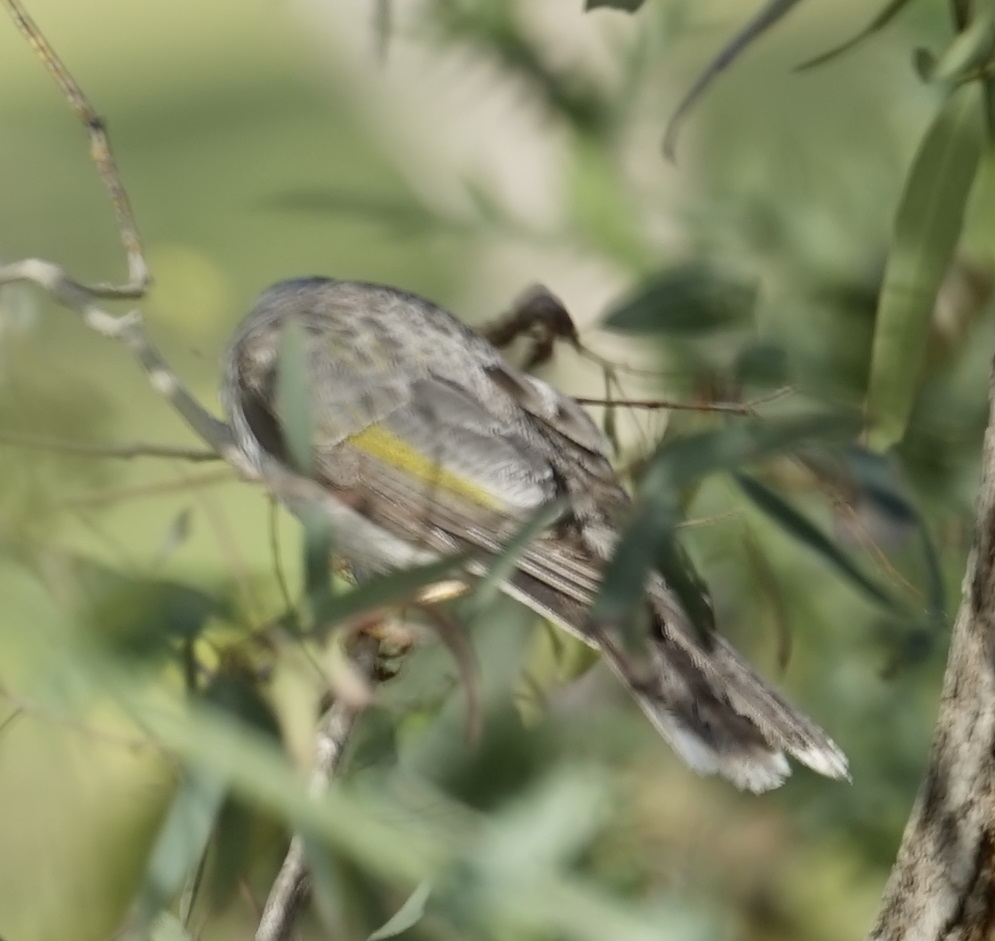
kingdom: Animalia
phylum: Chordata
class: Aves
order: Passeriformes
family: Meliphagidae
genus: Manorina
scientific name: Manorina melanocephala
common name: Noisy miner
